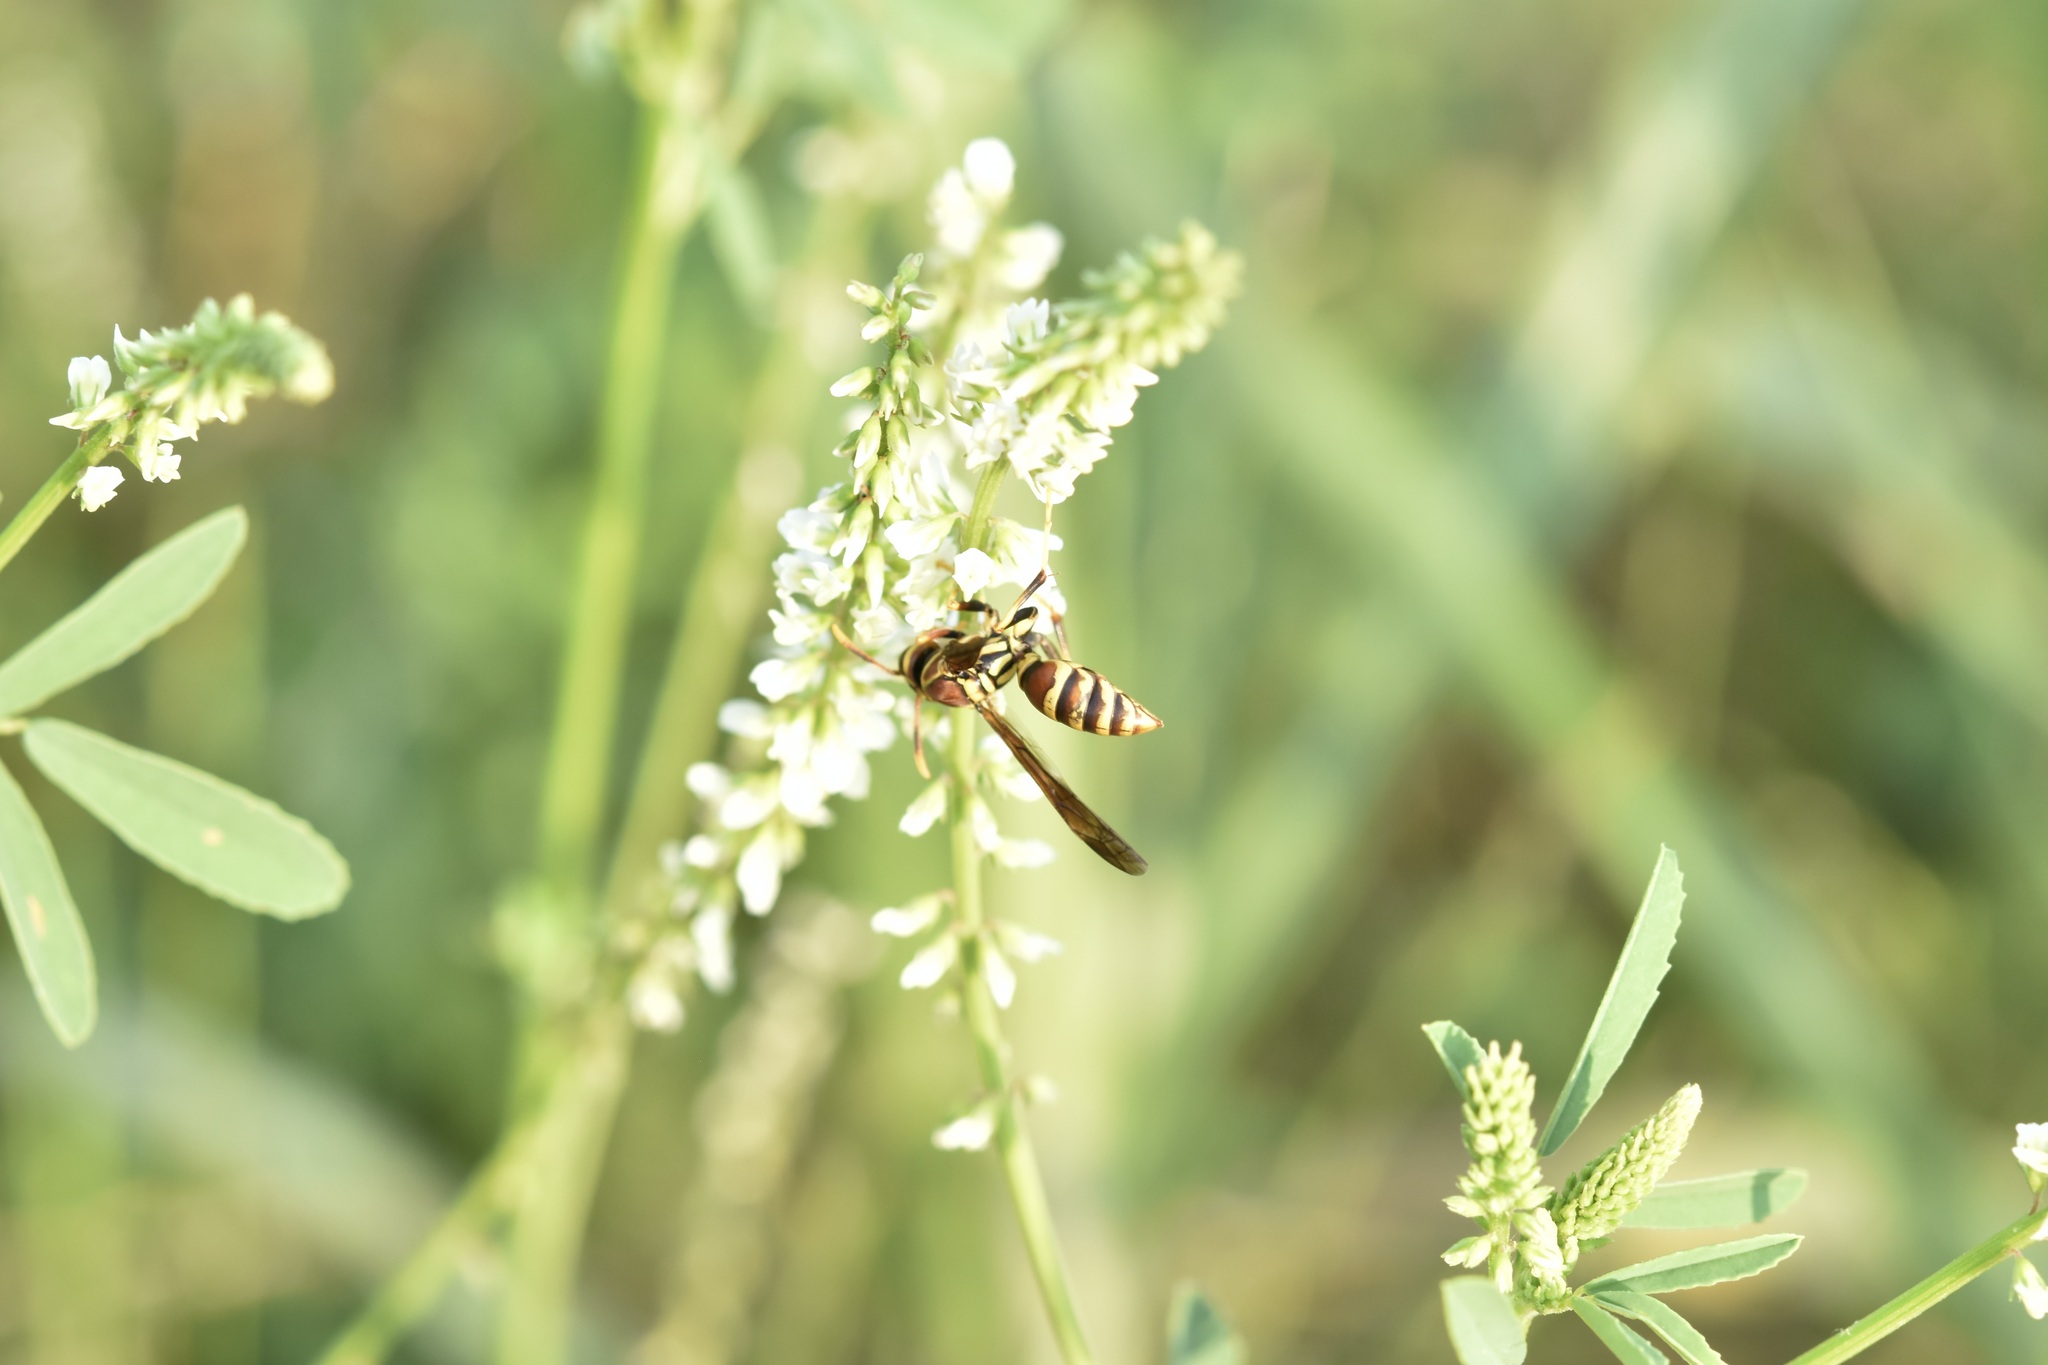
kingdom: Animalia
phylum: Arthropoda
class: Insecta
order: Hymenoptera
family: Eumenidae
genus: Polistes
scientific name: Polistes exclamans
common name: Paper wasp
